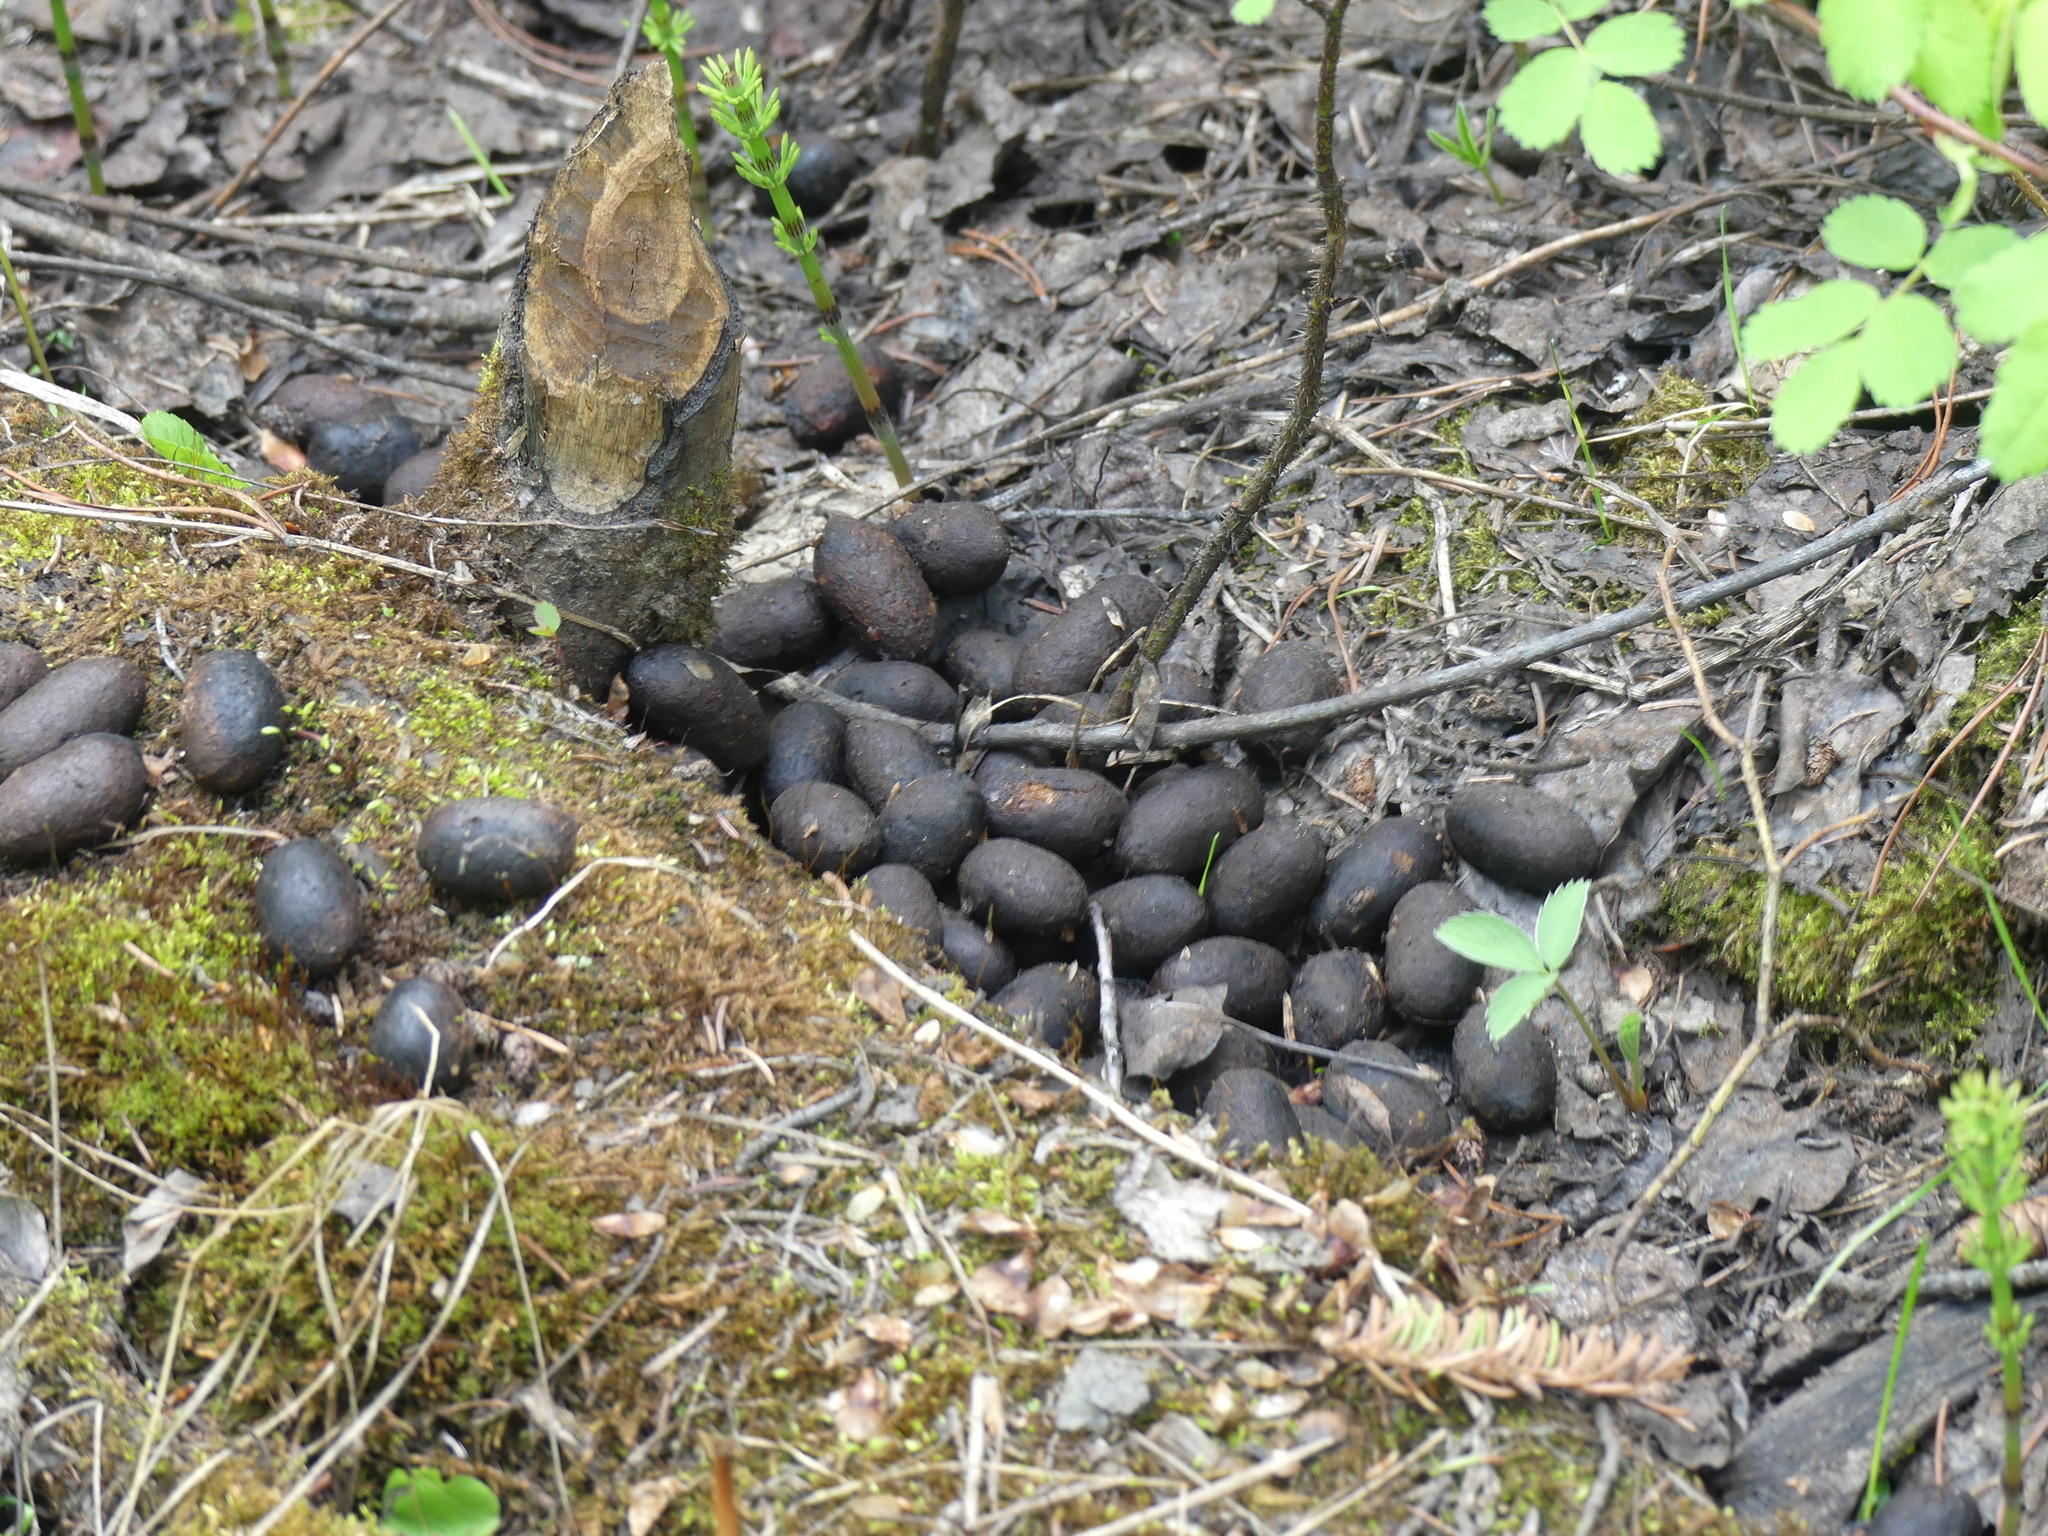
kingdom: Animalia
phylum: Chordata
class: Mammalia
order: Artiodactyla
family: Cervidae
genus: Alces
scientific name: Alces alces
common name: Moose
